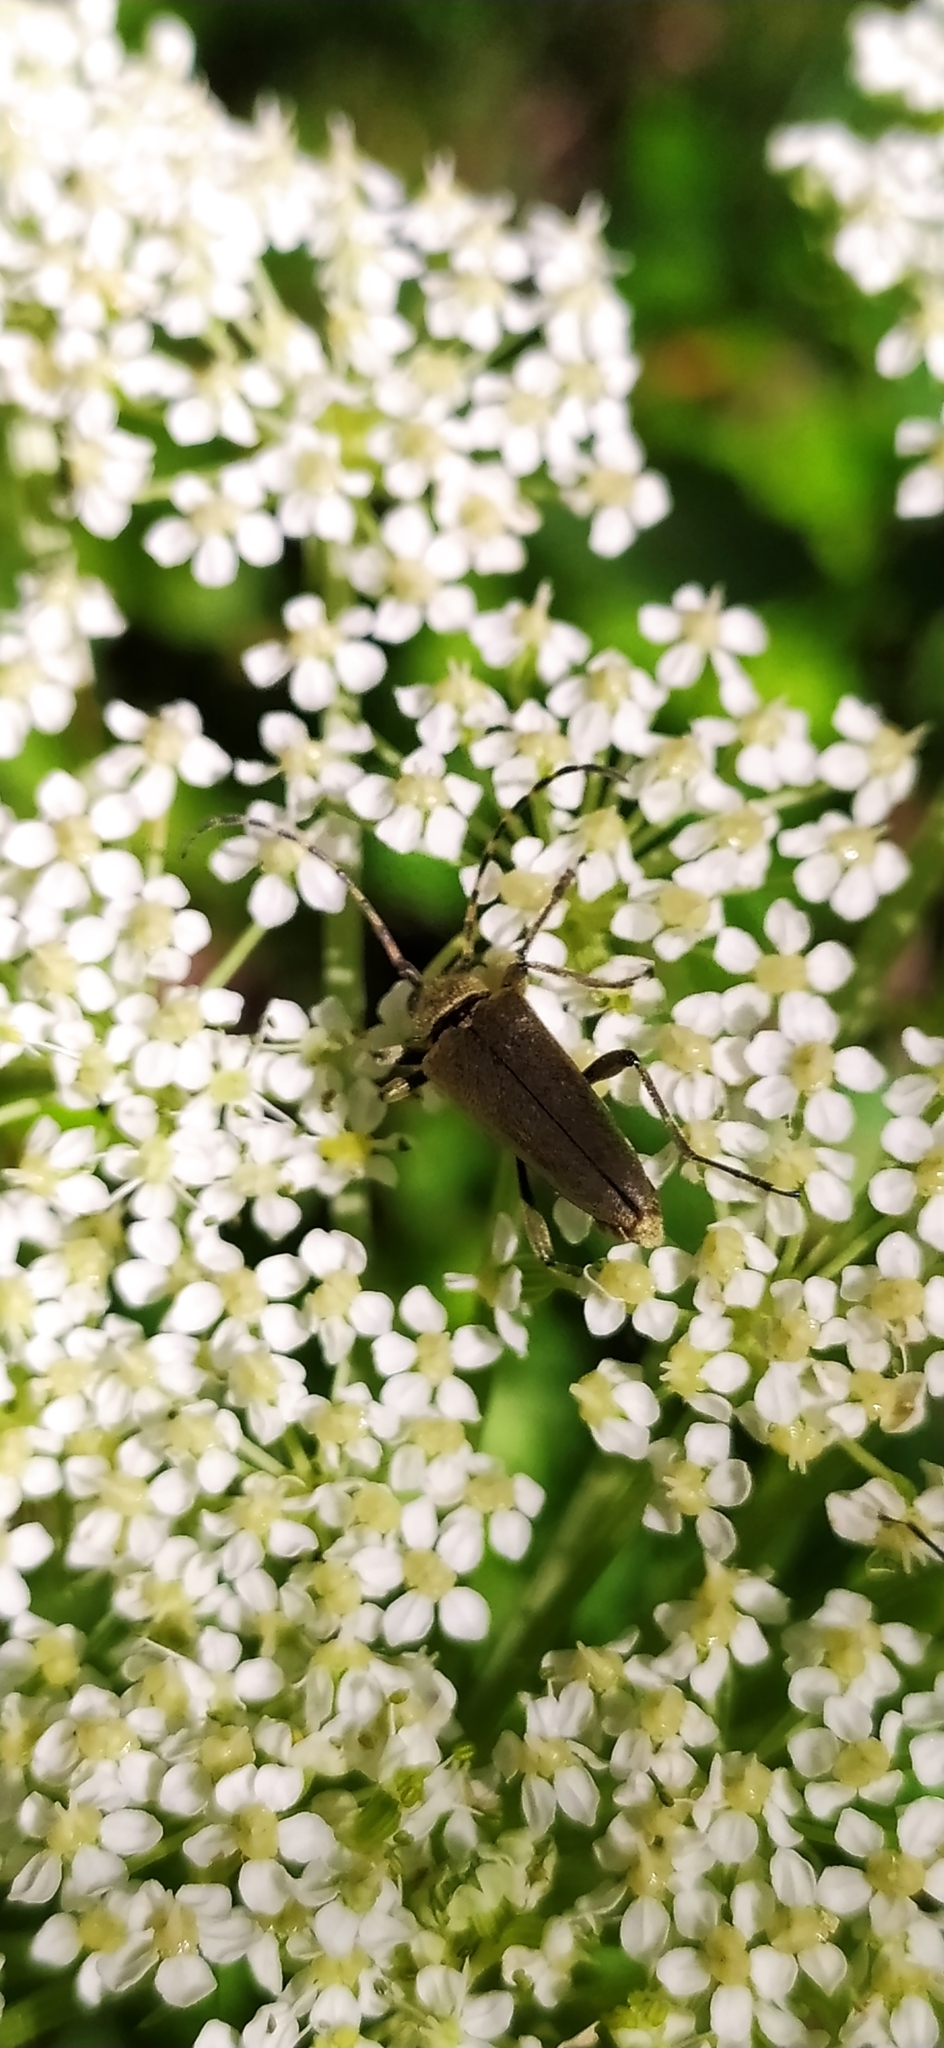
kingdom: Animalia
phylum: Arthropoda
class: Insecta
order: Coleoptera
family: Cerambycidae
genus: Lepturobosca
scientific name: Lepturobosca virens
